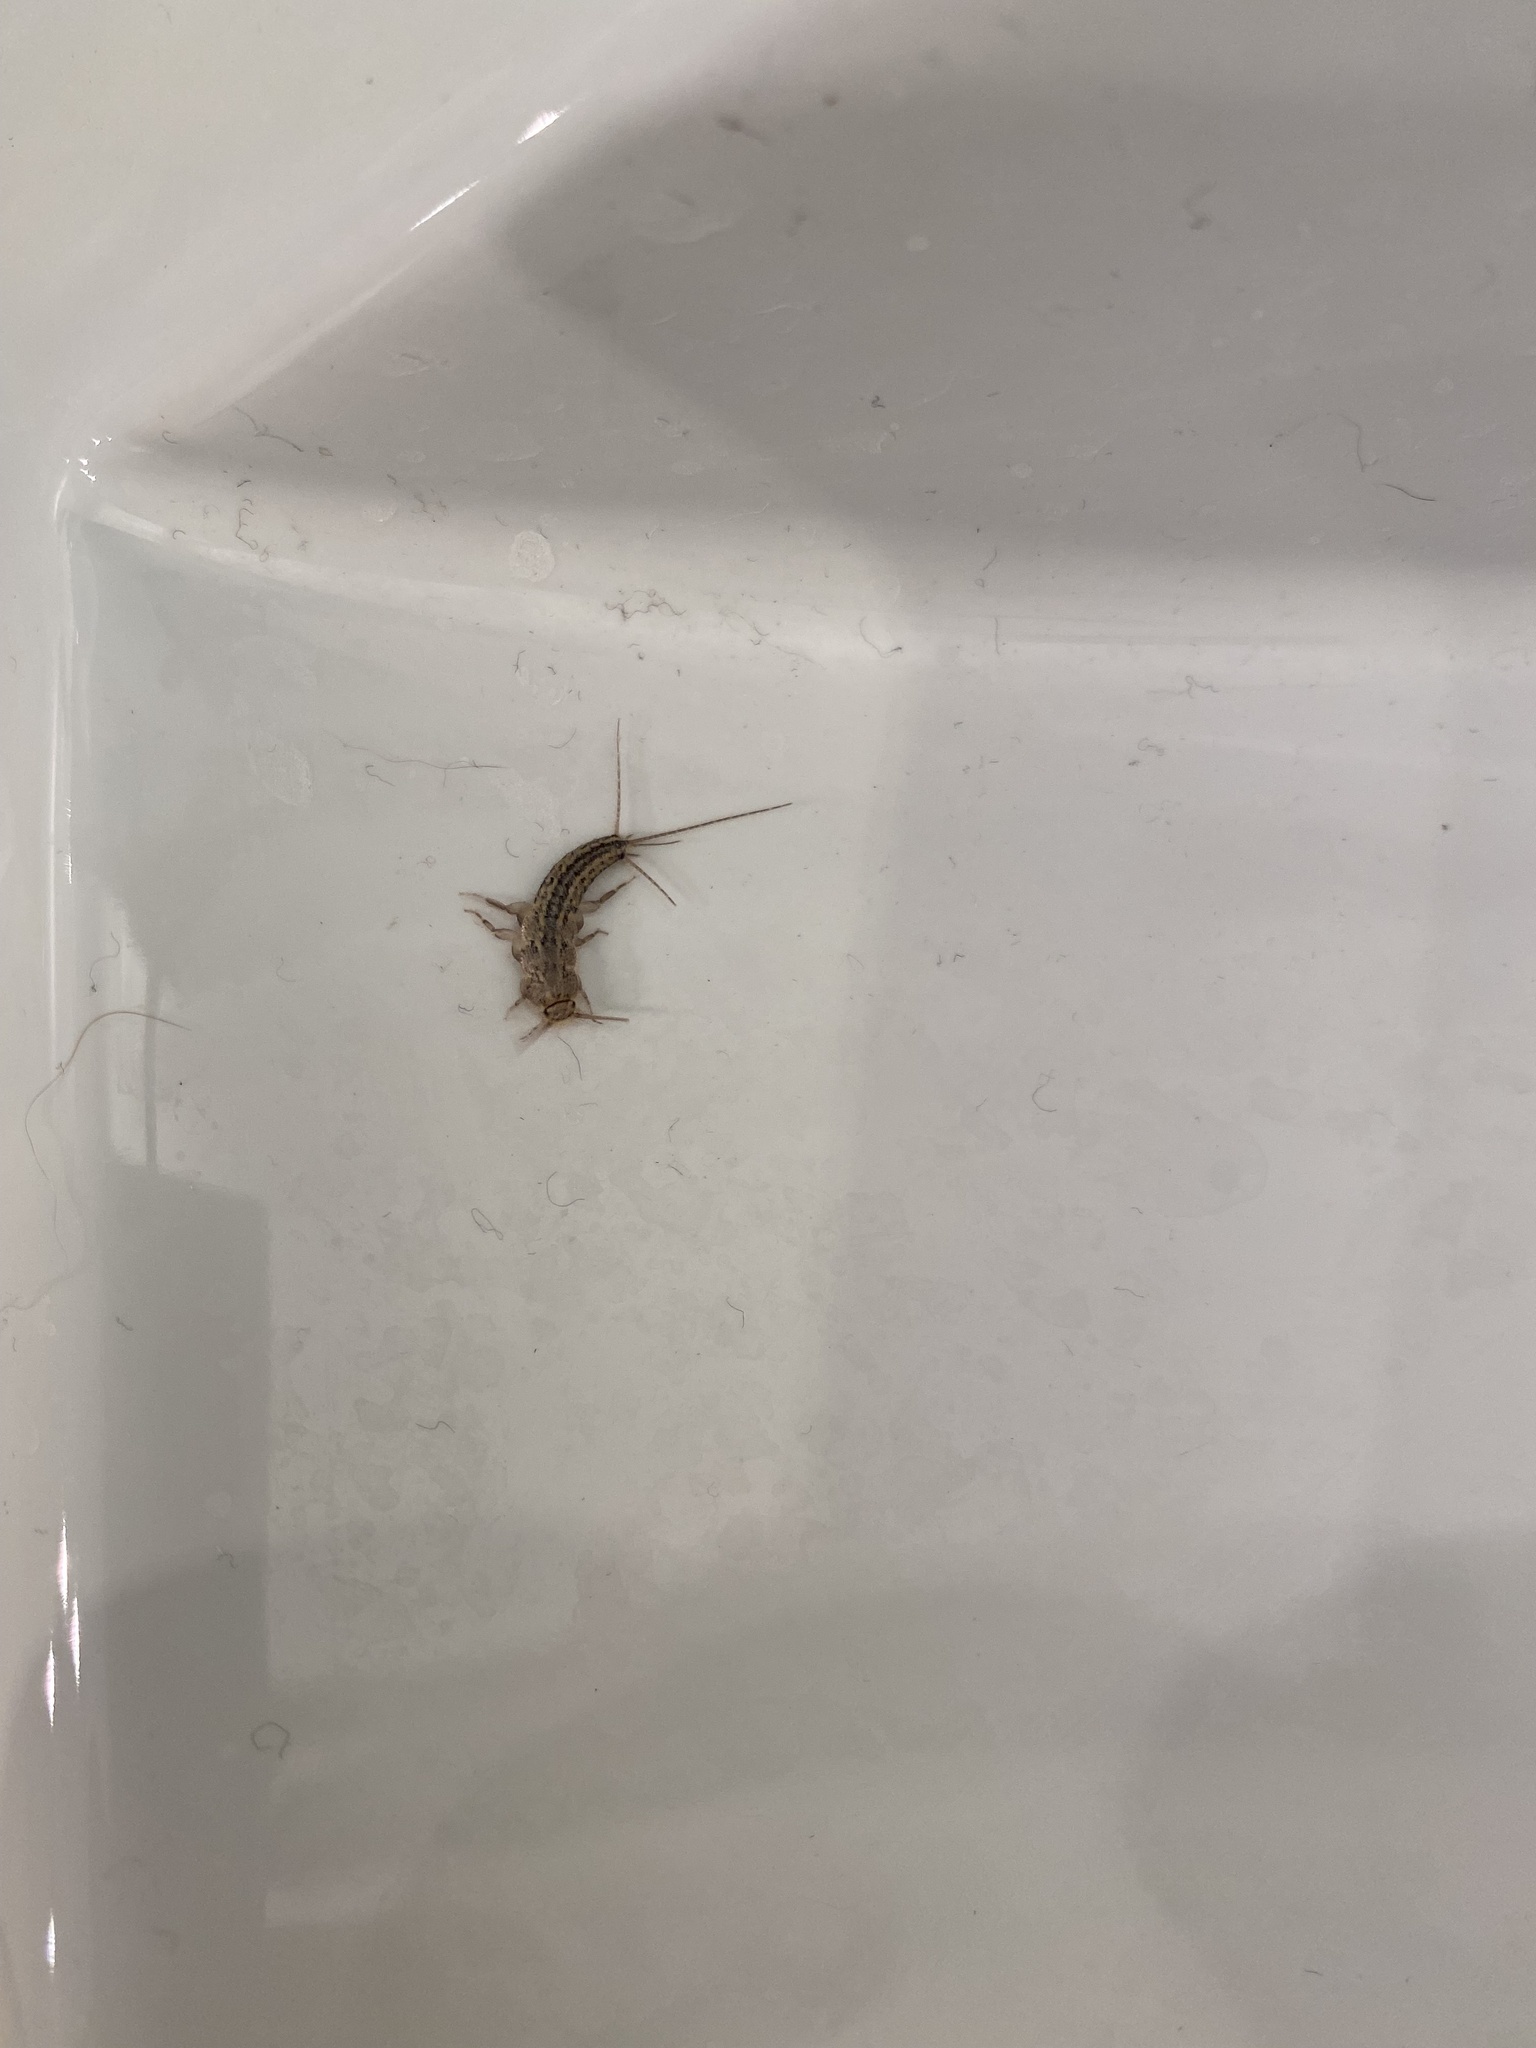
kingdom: Animalia
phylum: Arthropoda
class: Insecta
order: Zygentoma
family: Lepismatidae
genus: Ctenolepisma
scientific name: Ctenolepisma lineata
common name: Four-lined silverfish
